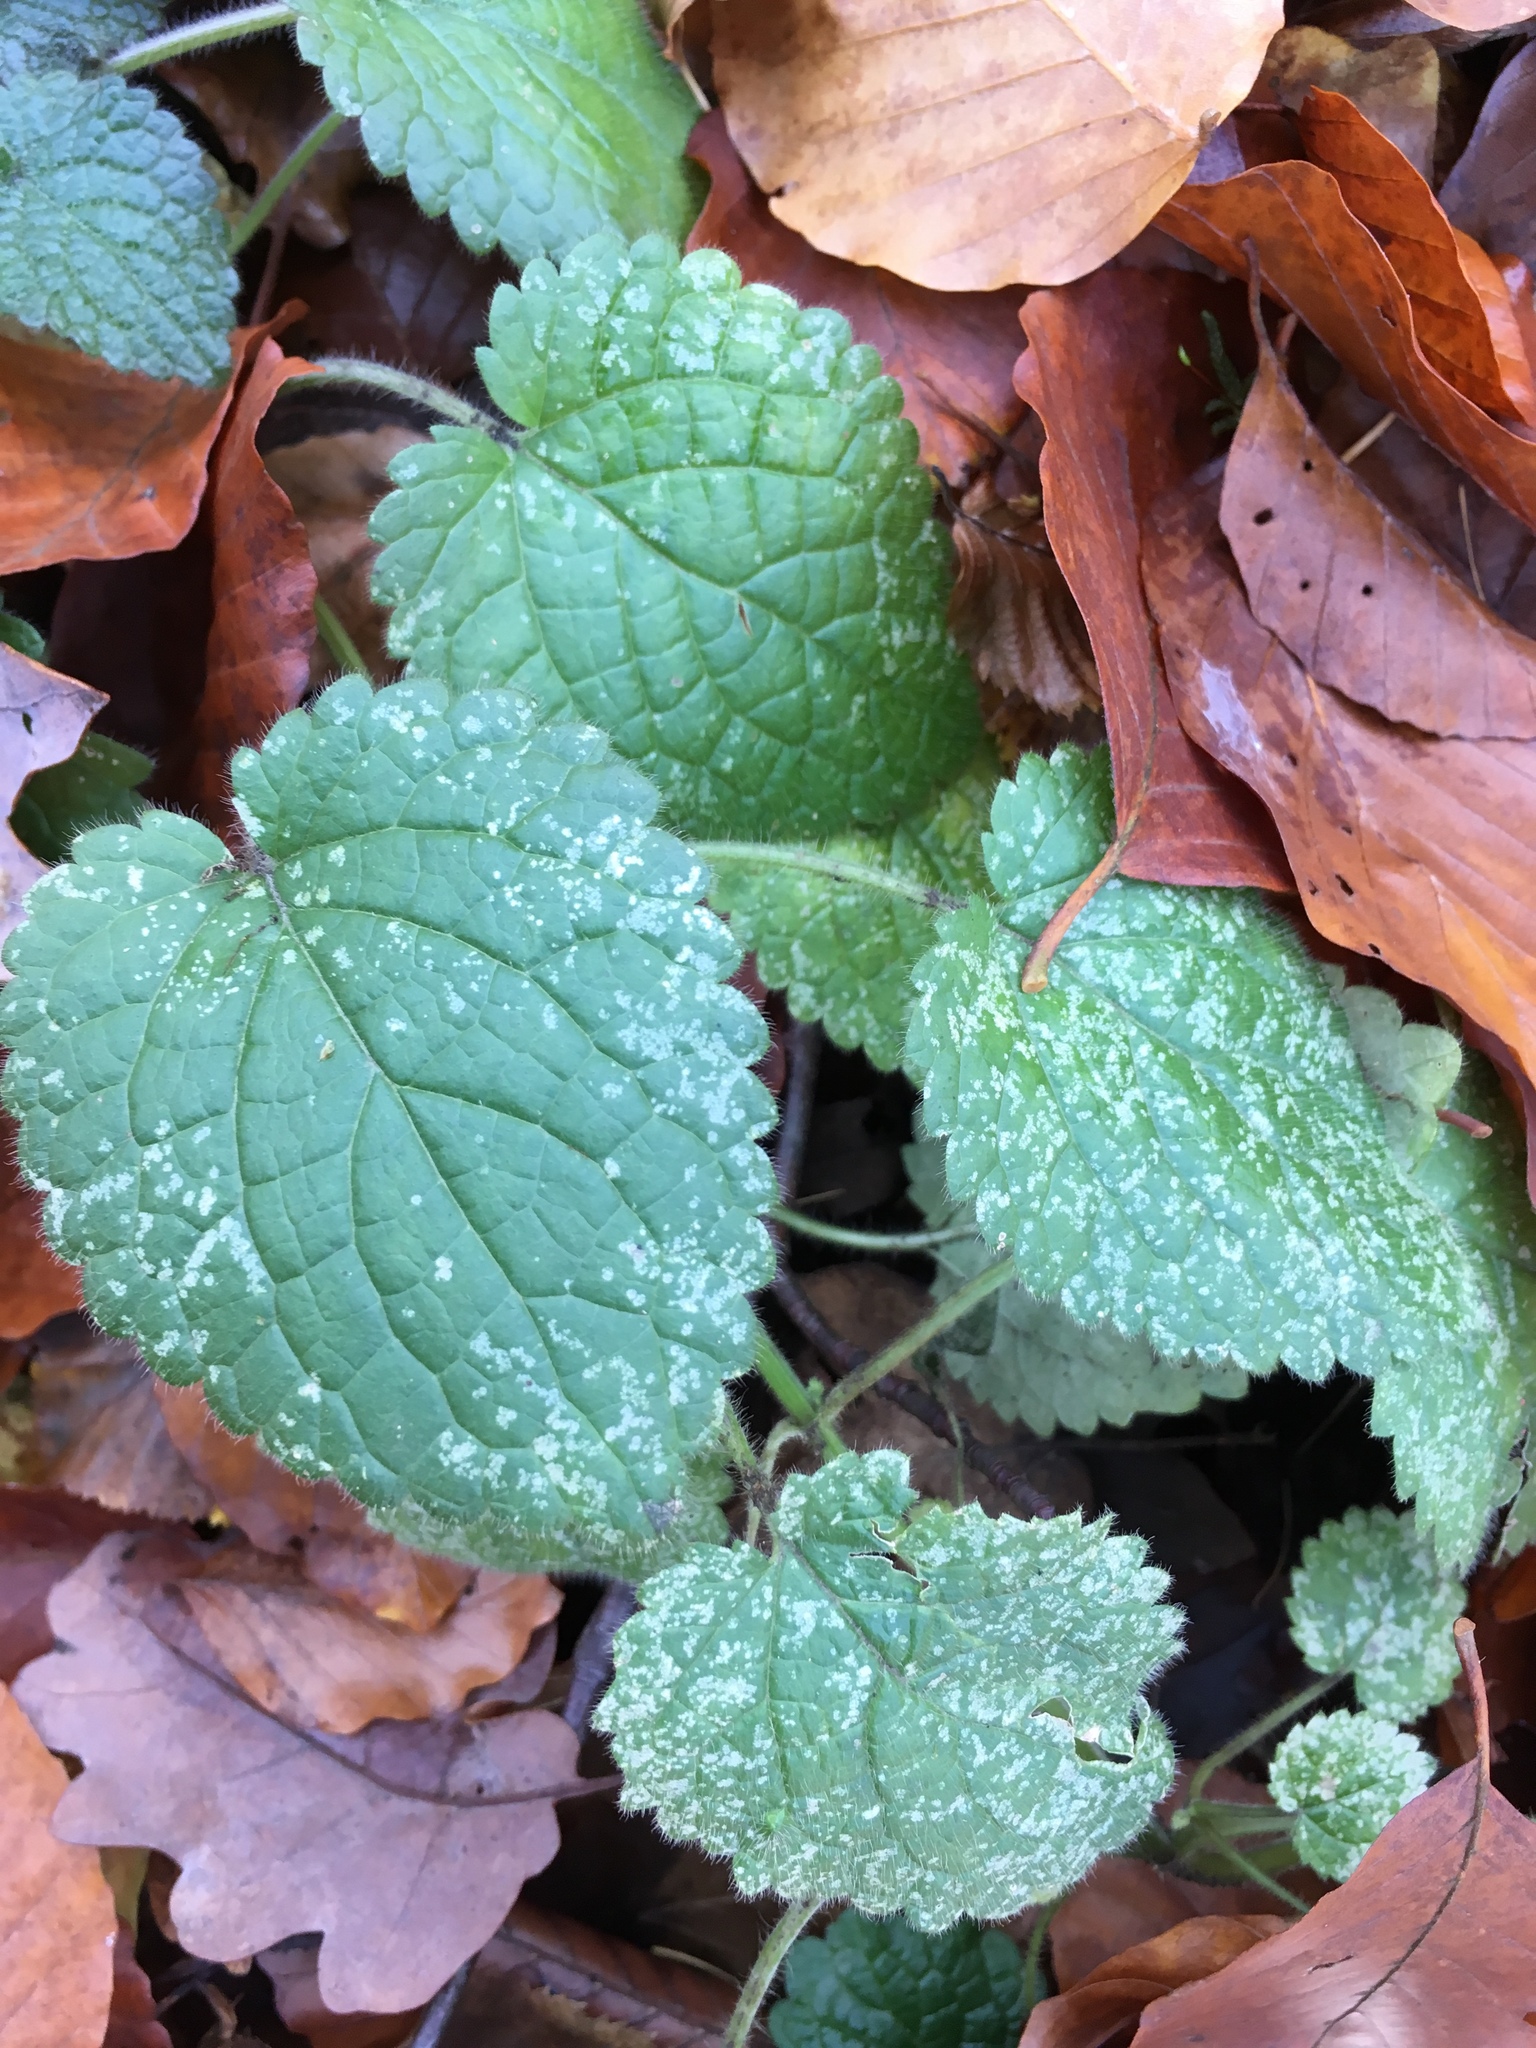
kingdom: Plantae
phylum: Tracheophyta
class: Magnoliopsida
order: Lamiales
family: Lamiaceae
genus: Lamium
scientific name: Lamium maculatum
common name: Spotted dead-nettle
